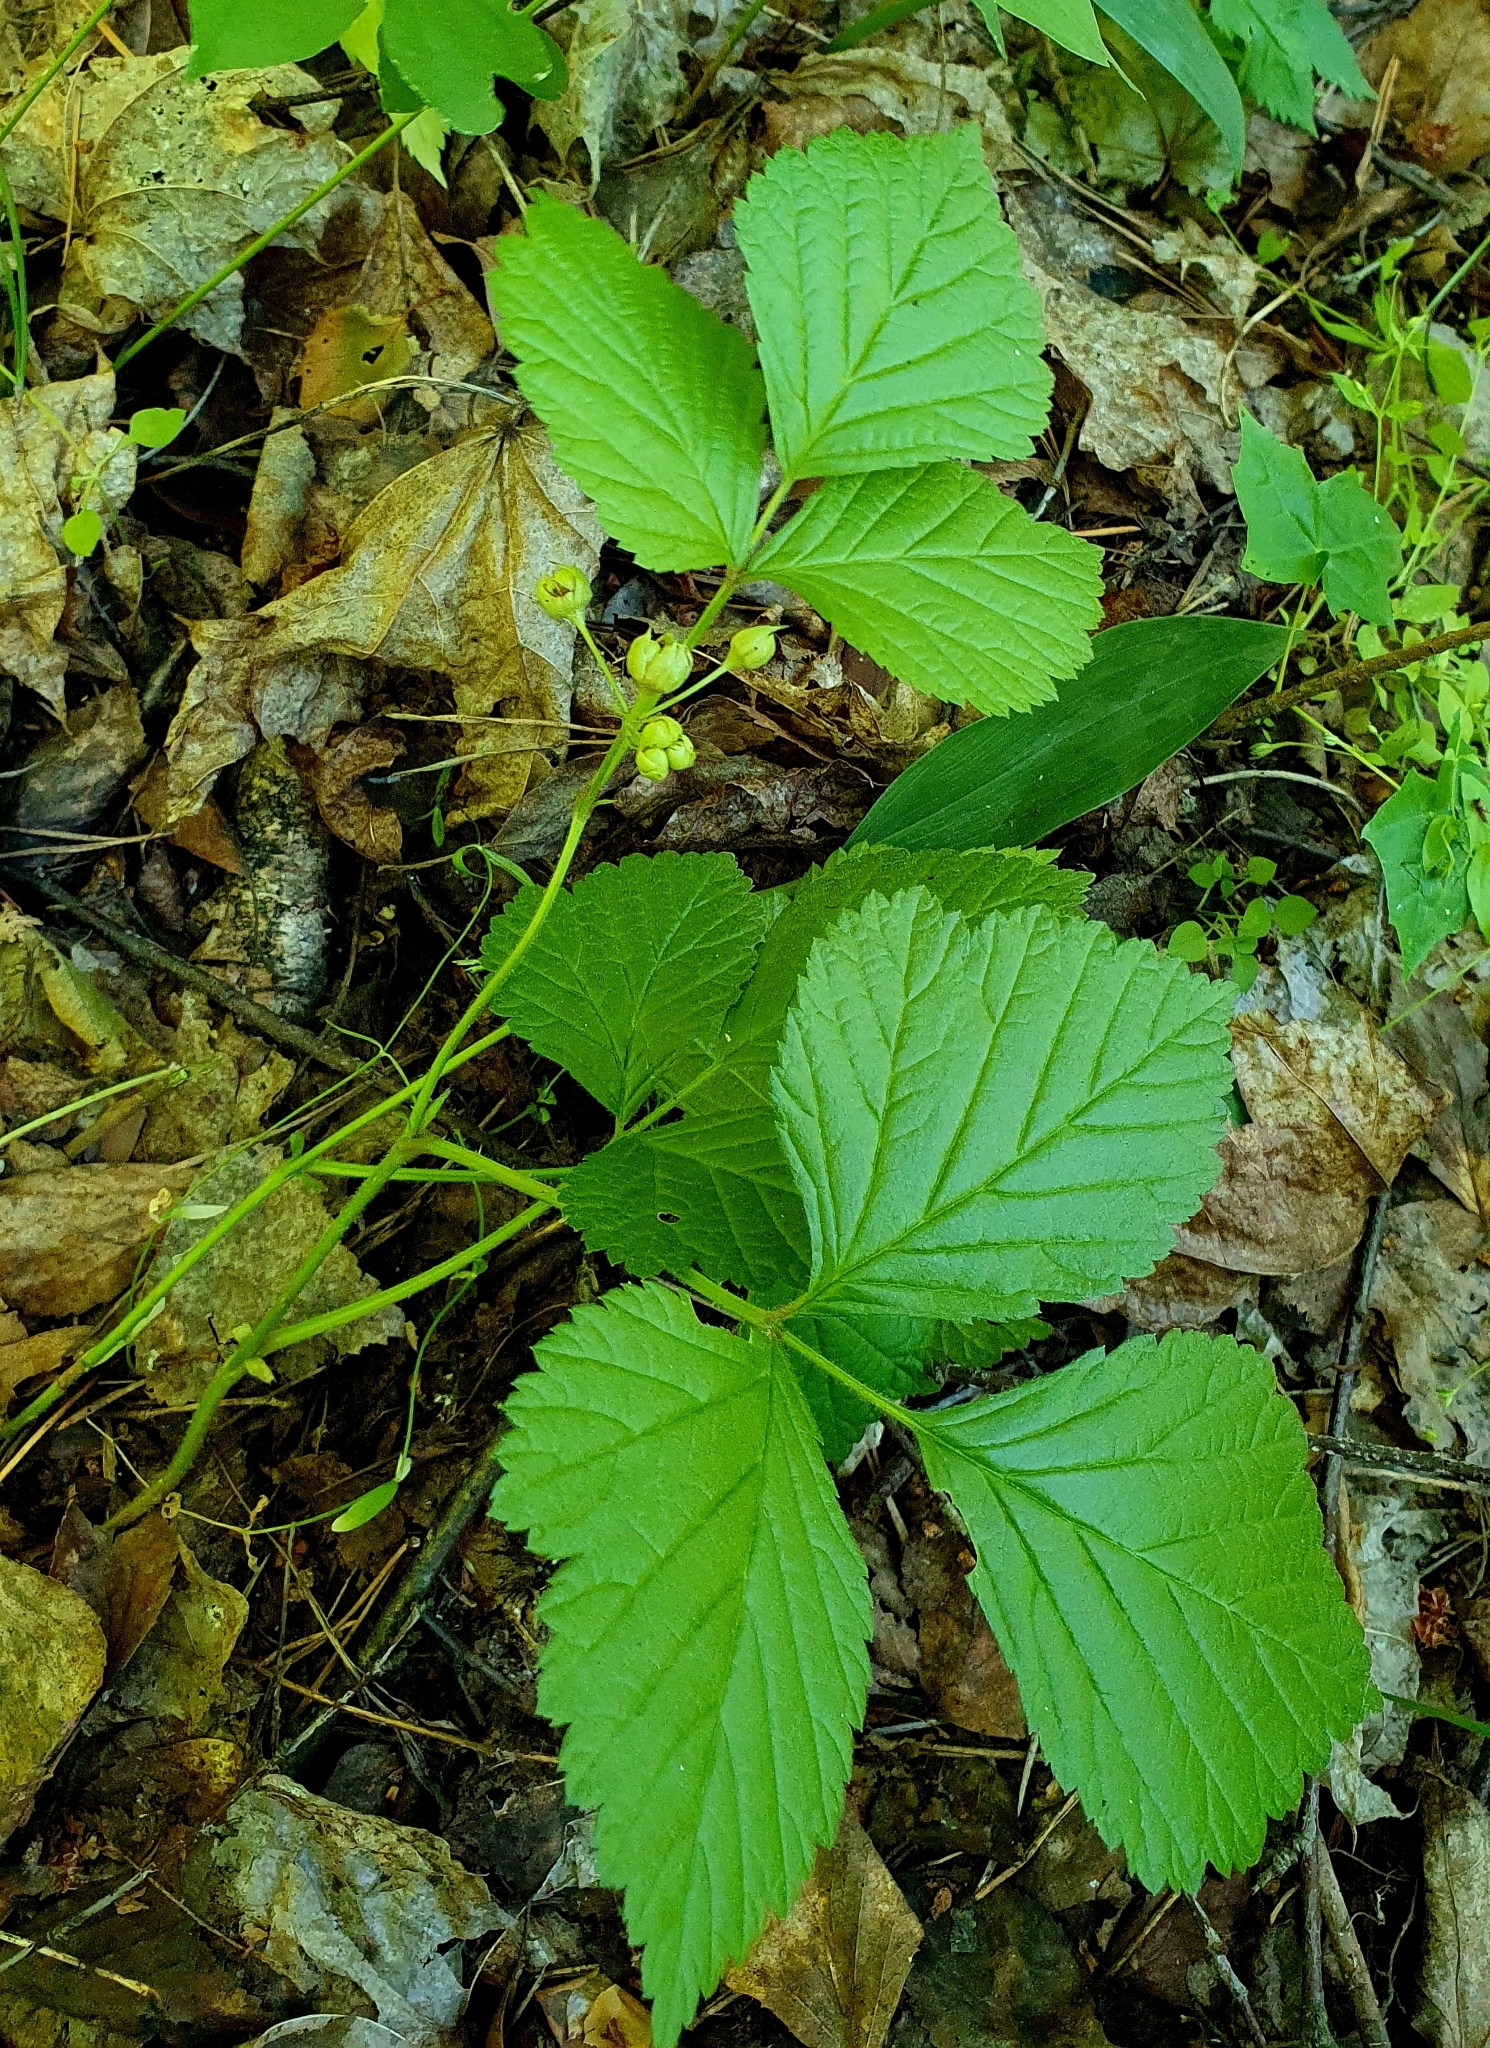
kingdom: Plantae
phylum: Tracheophyta
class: Magnoliopsida
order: Rosales
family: Rosaceae
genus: Rubus
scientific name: Rubus saxatilis
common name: Stone bramble
